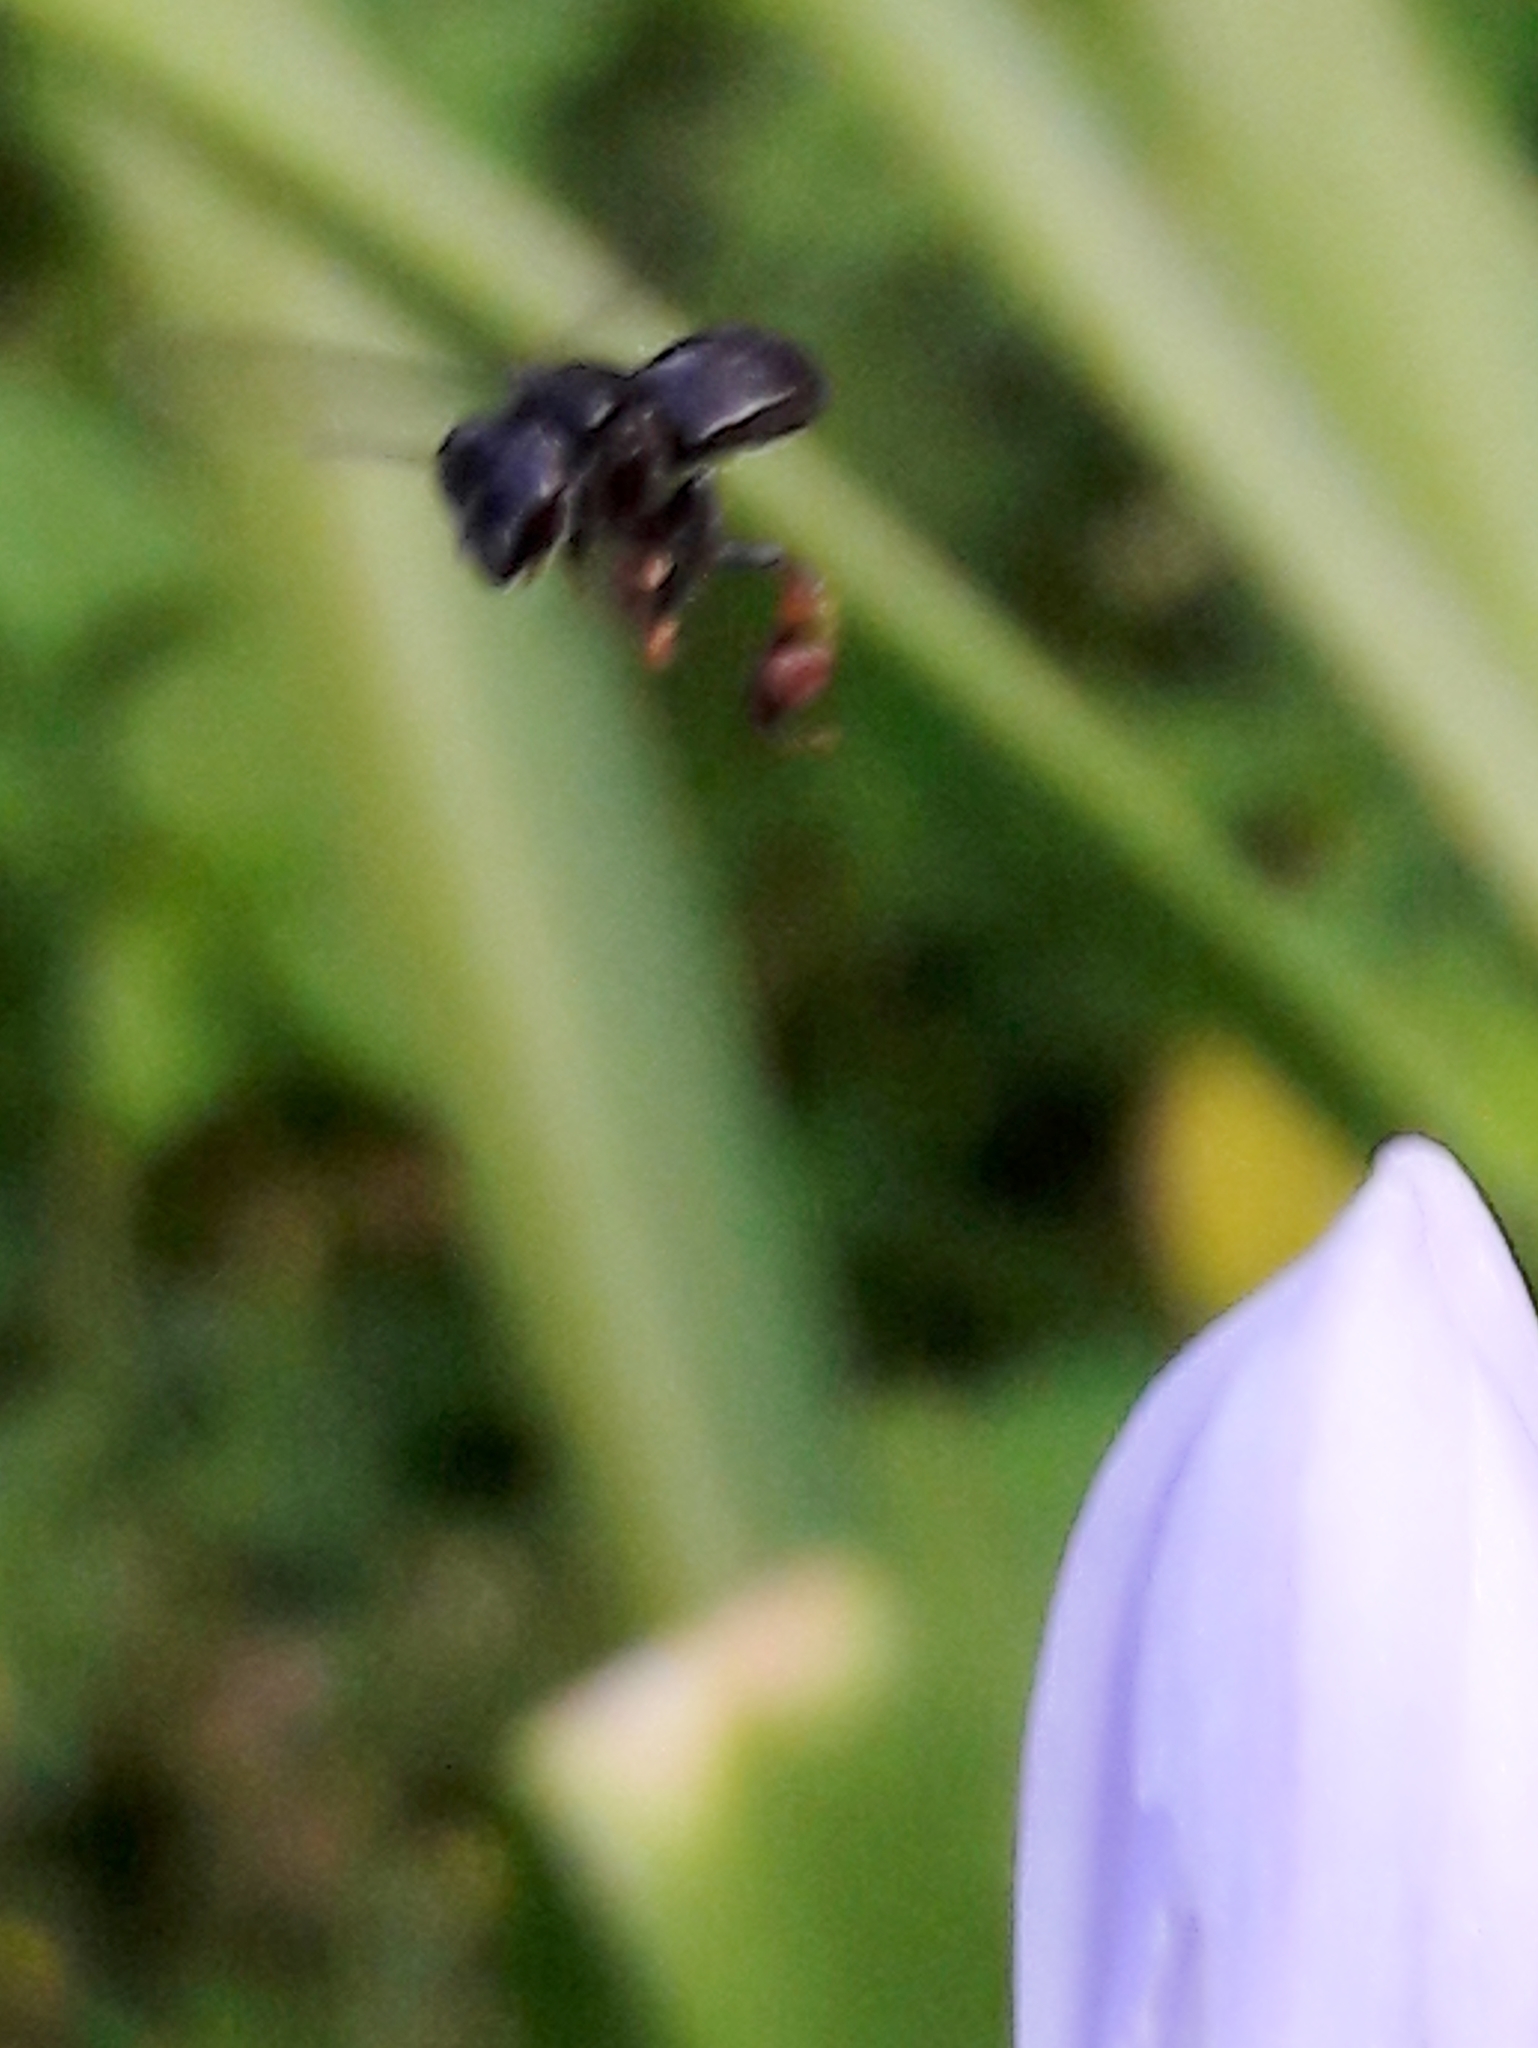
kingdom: Animalia
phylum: Arthropoda
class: Insecta
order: Hymenoptera
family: Apidae
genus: Trigona
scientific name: Trigona spinipes
